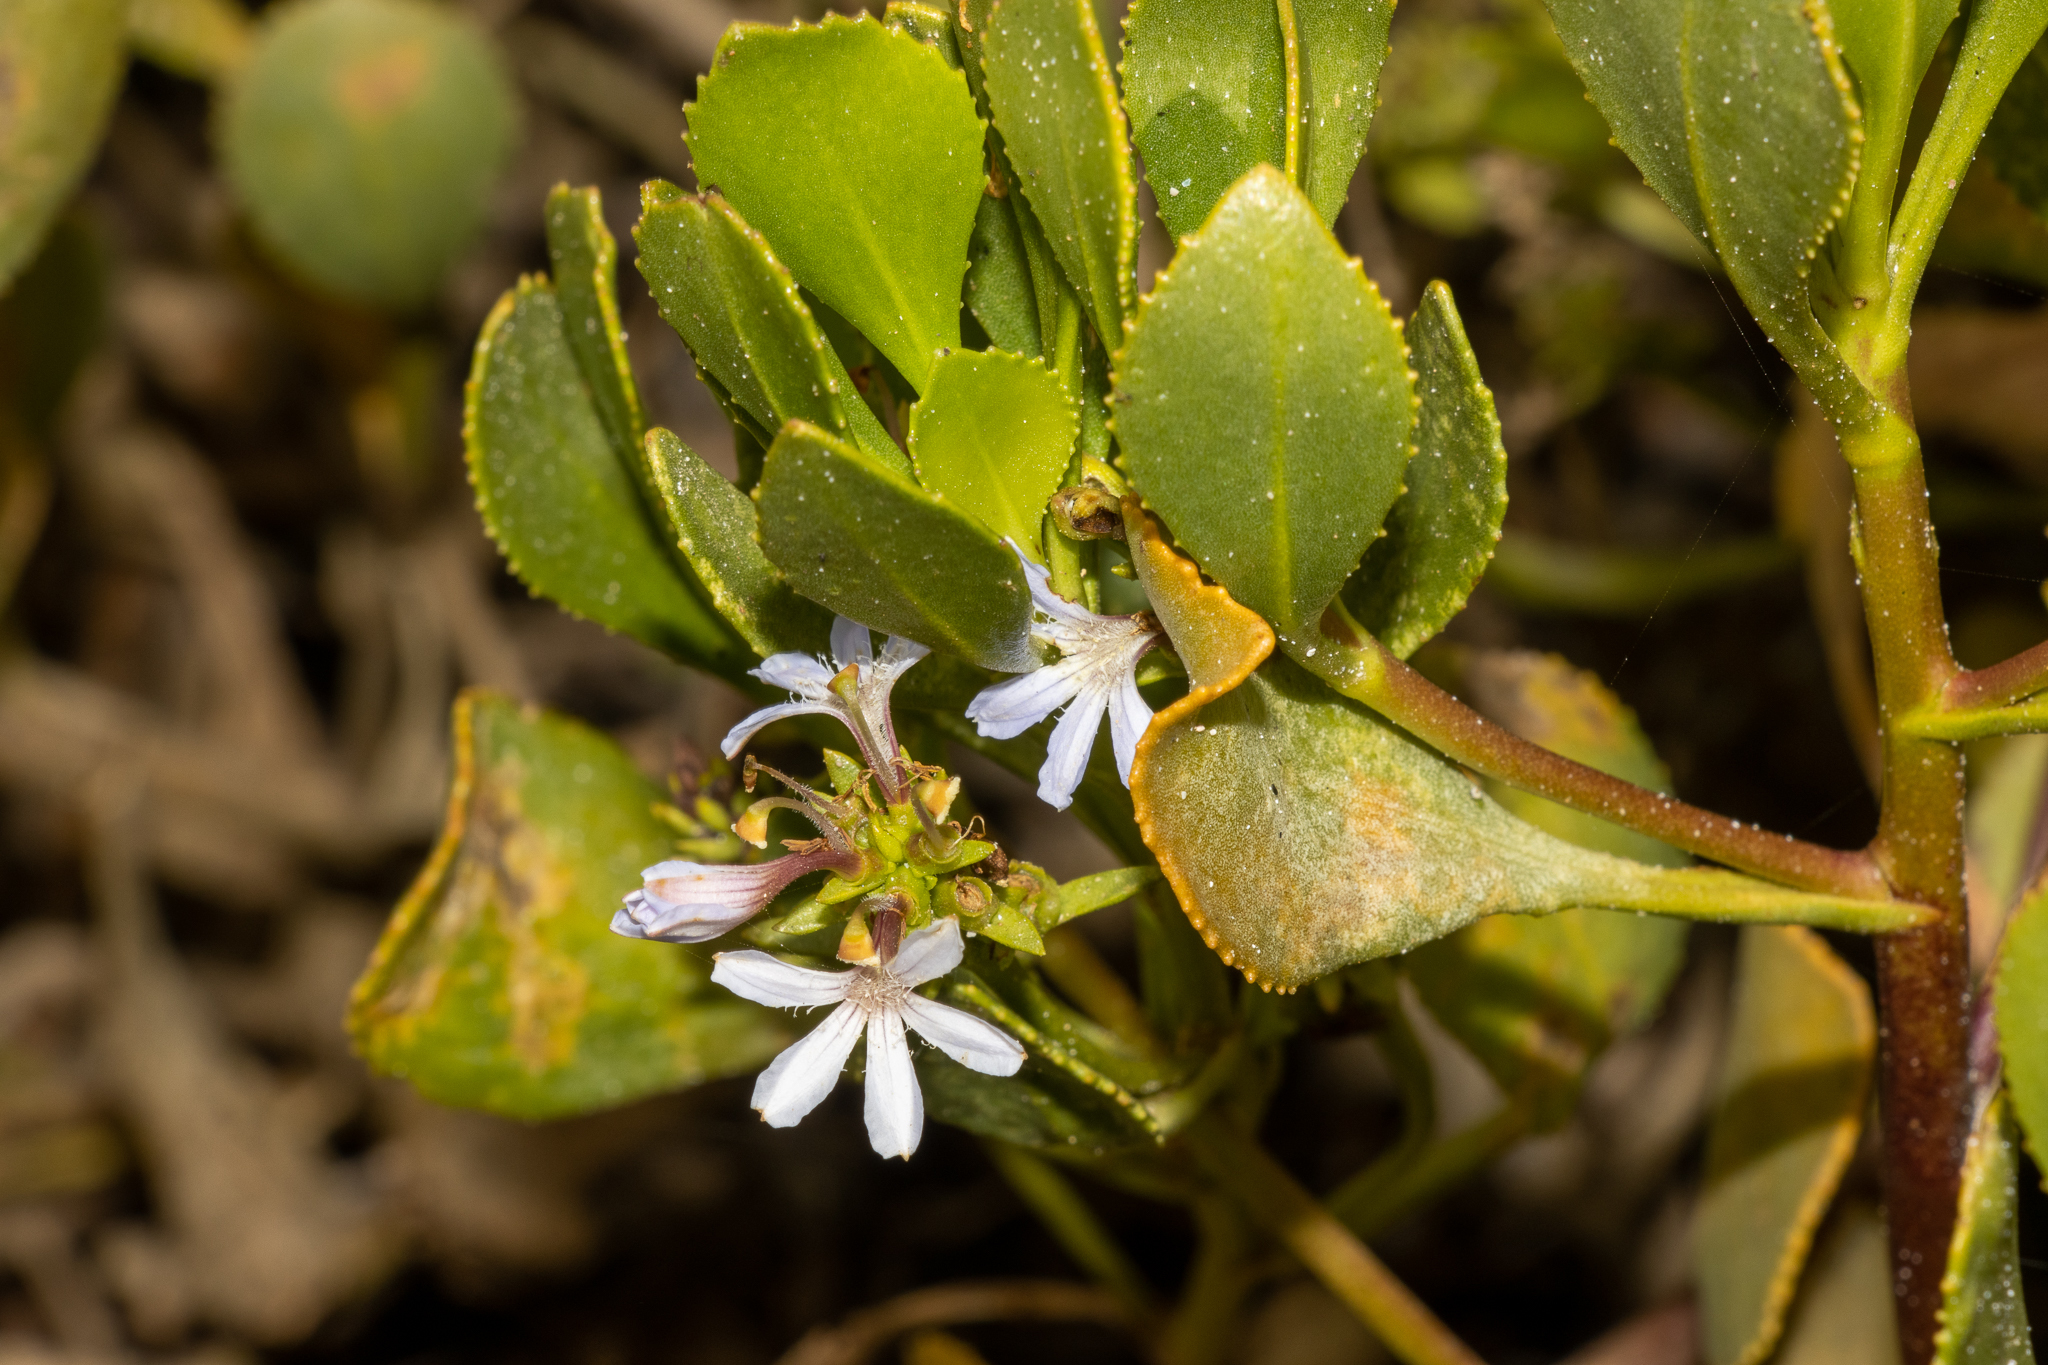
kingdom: Plantae
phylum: Tracheophyta
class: Magnoliopsida
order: Asterales
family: Goodeniaceae
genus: Scaevola
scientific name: Scaevola crassifolia
